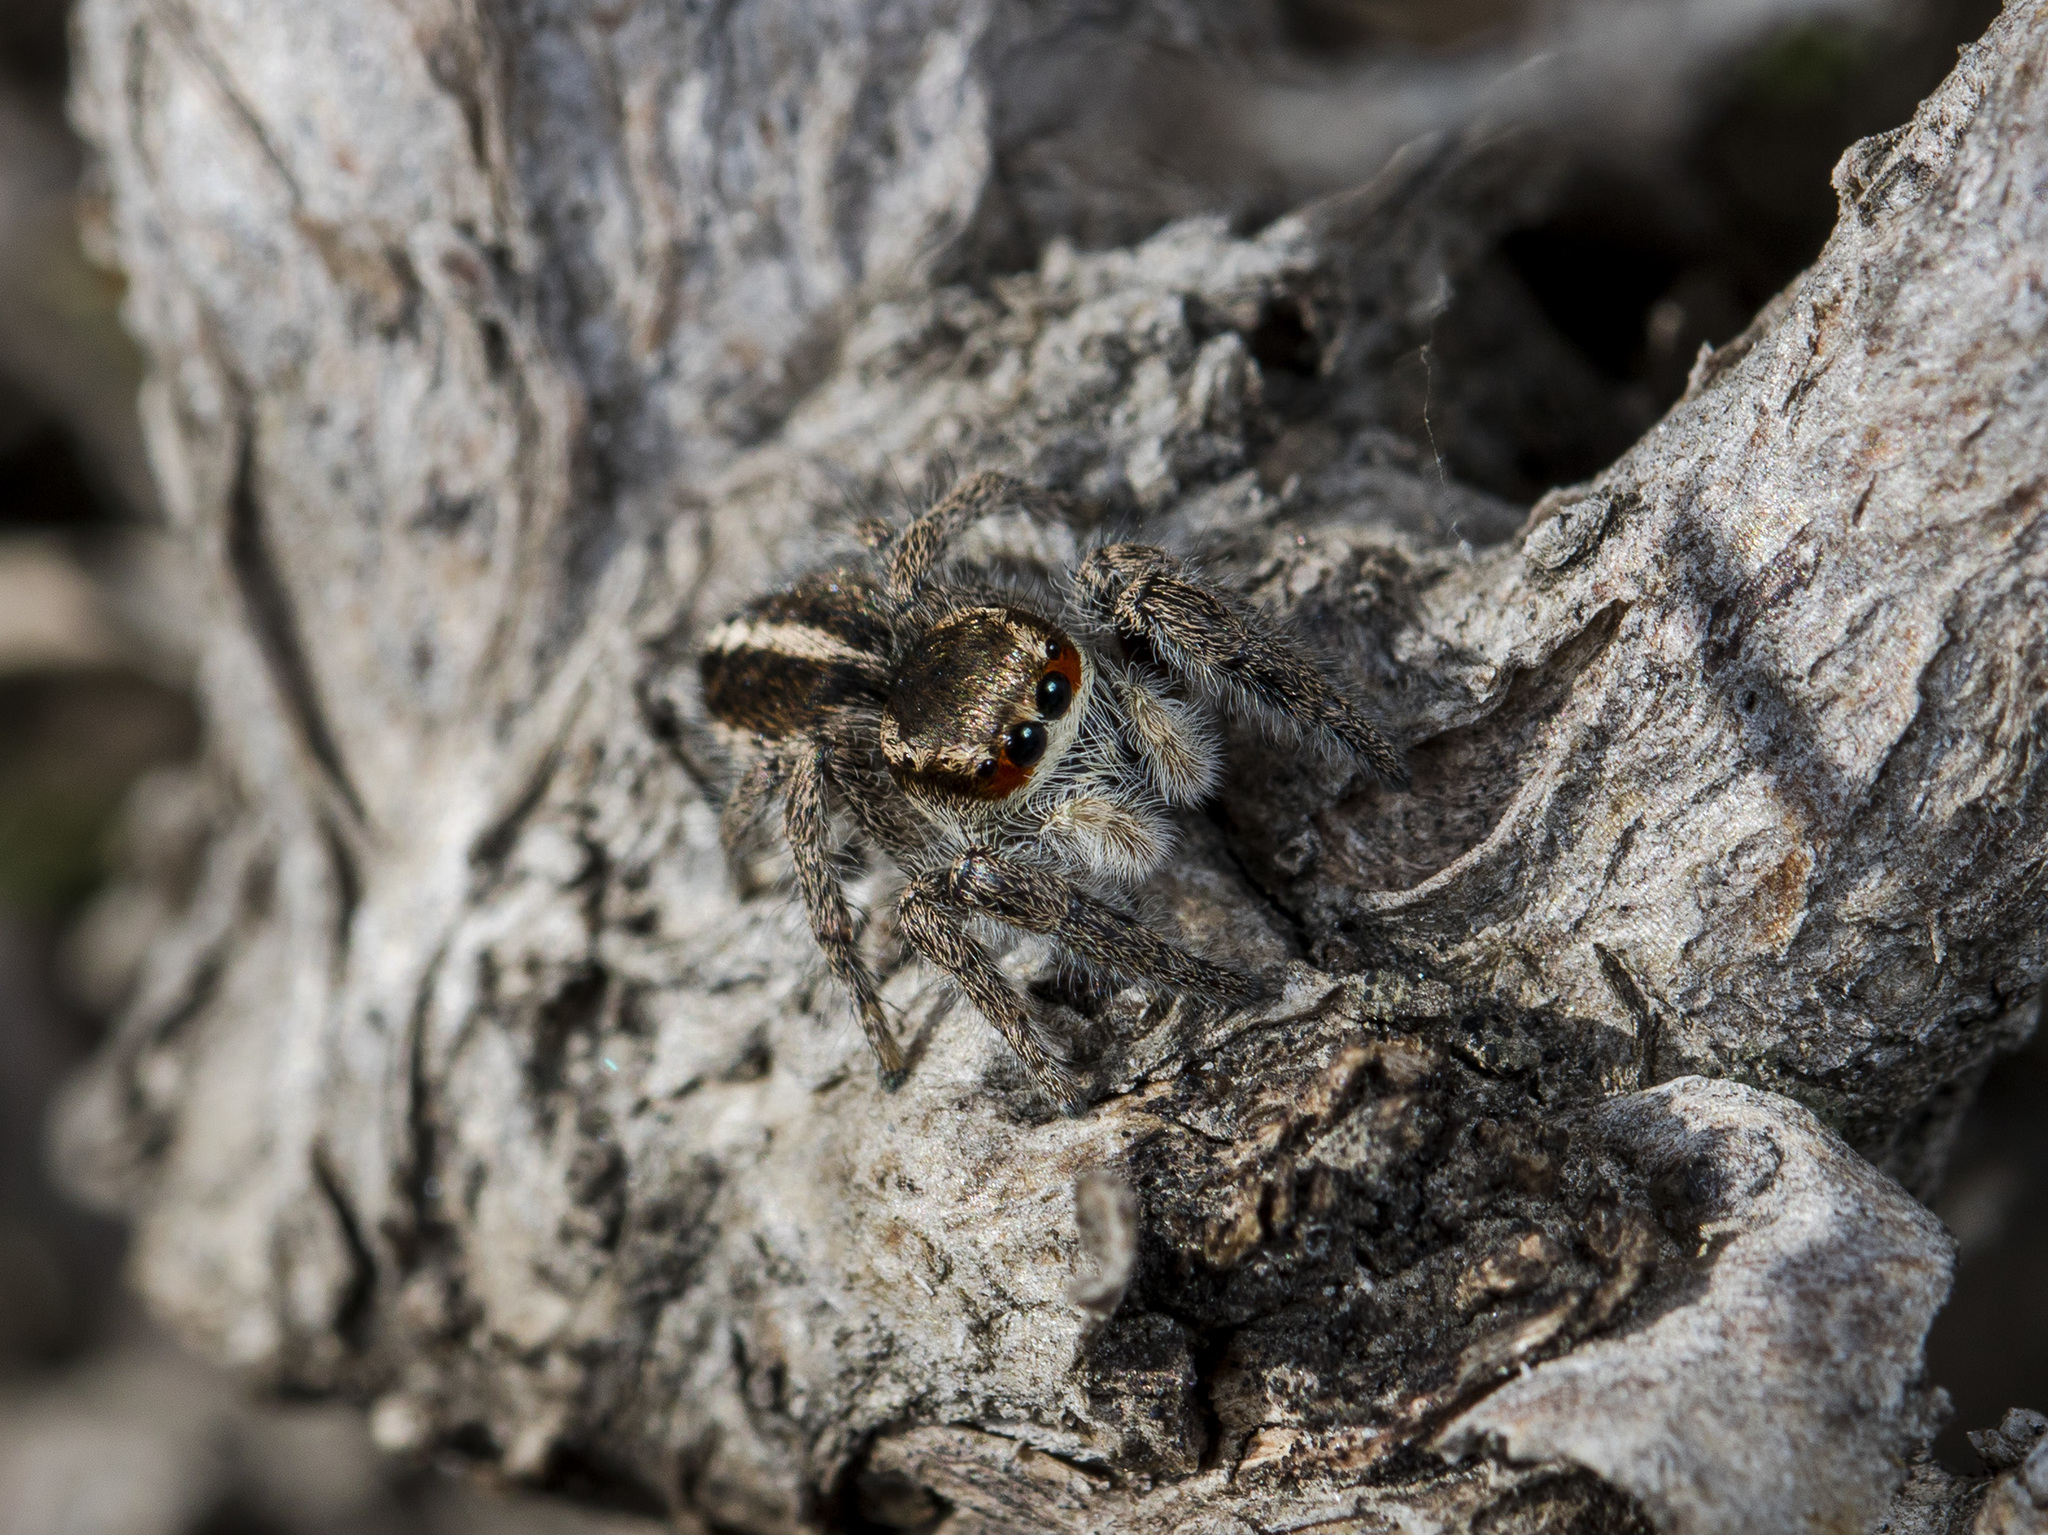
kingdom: Animalia
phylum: Arthropoda
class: Arachnida
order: Araneae
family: Salticidae
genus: Pellenes
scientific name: Pellenes seriatus
